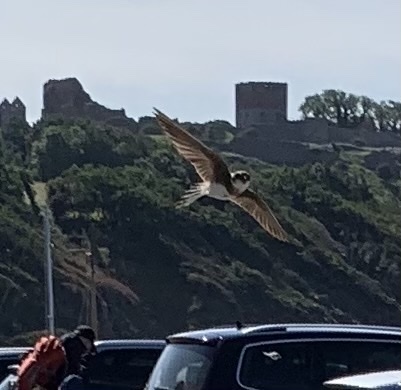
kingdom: Animalia
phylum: Chordata
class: Aves
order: Passeriformes
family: Hirundinidae
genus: Riparia
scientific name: Riparia riparia
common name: Sand martin
